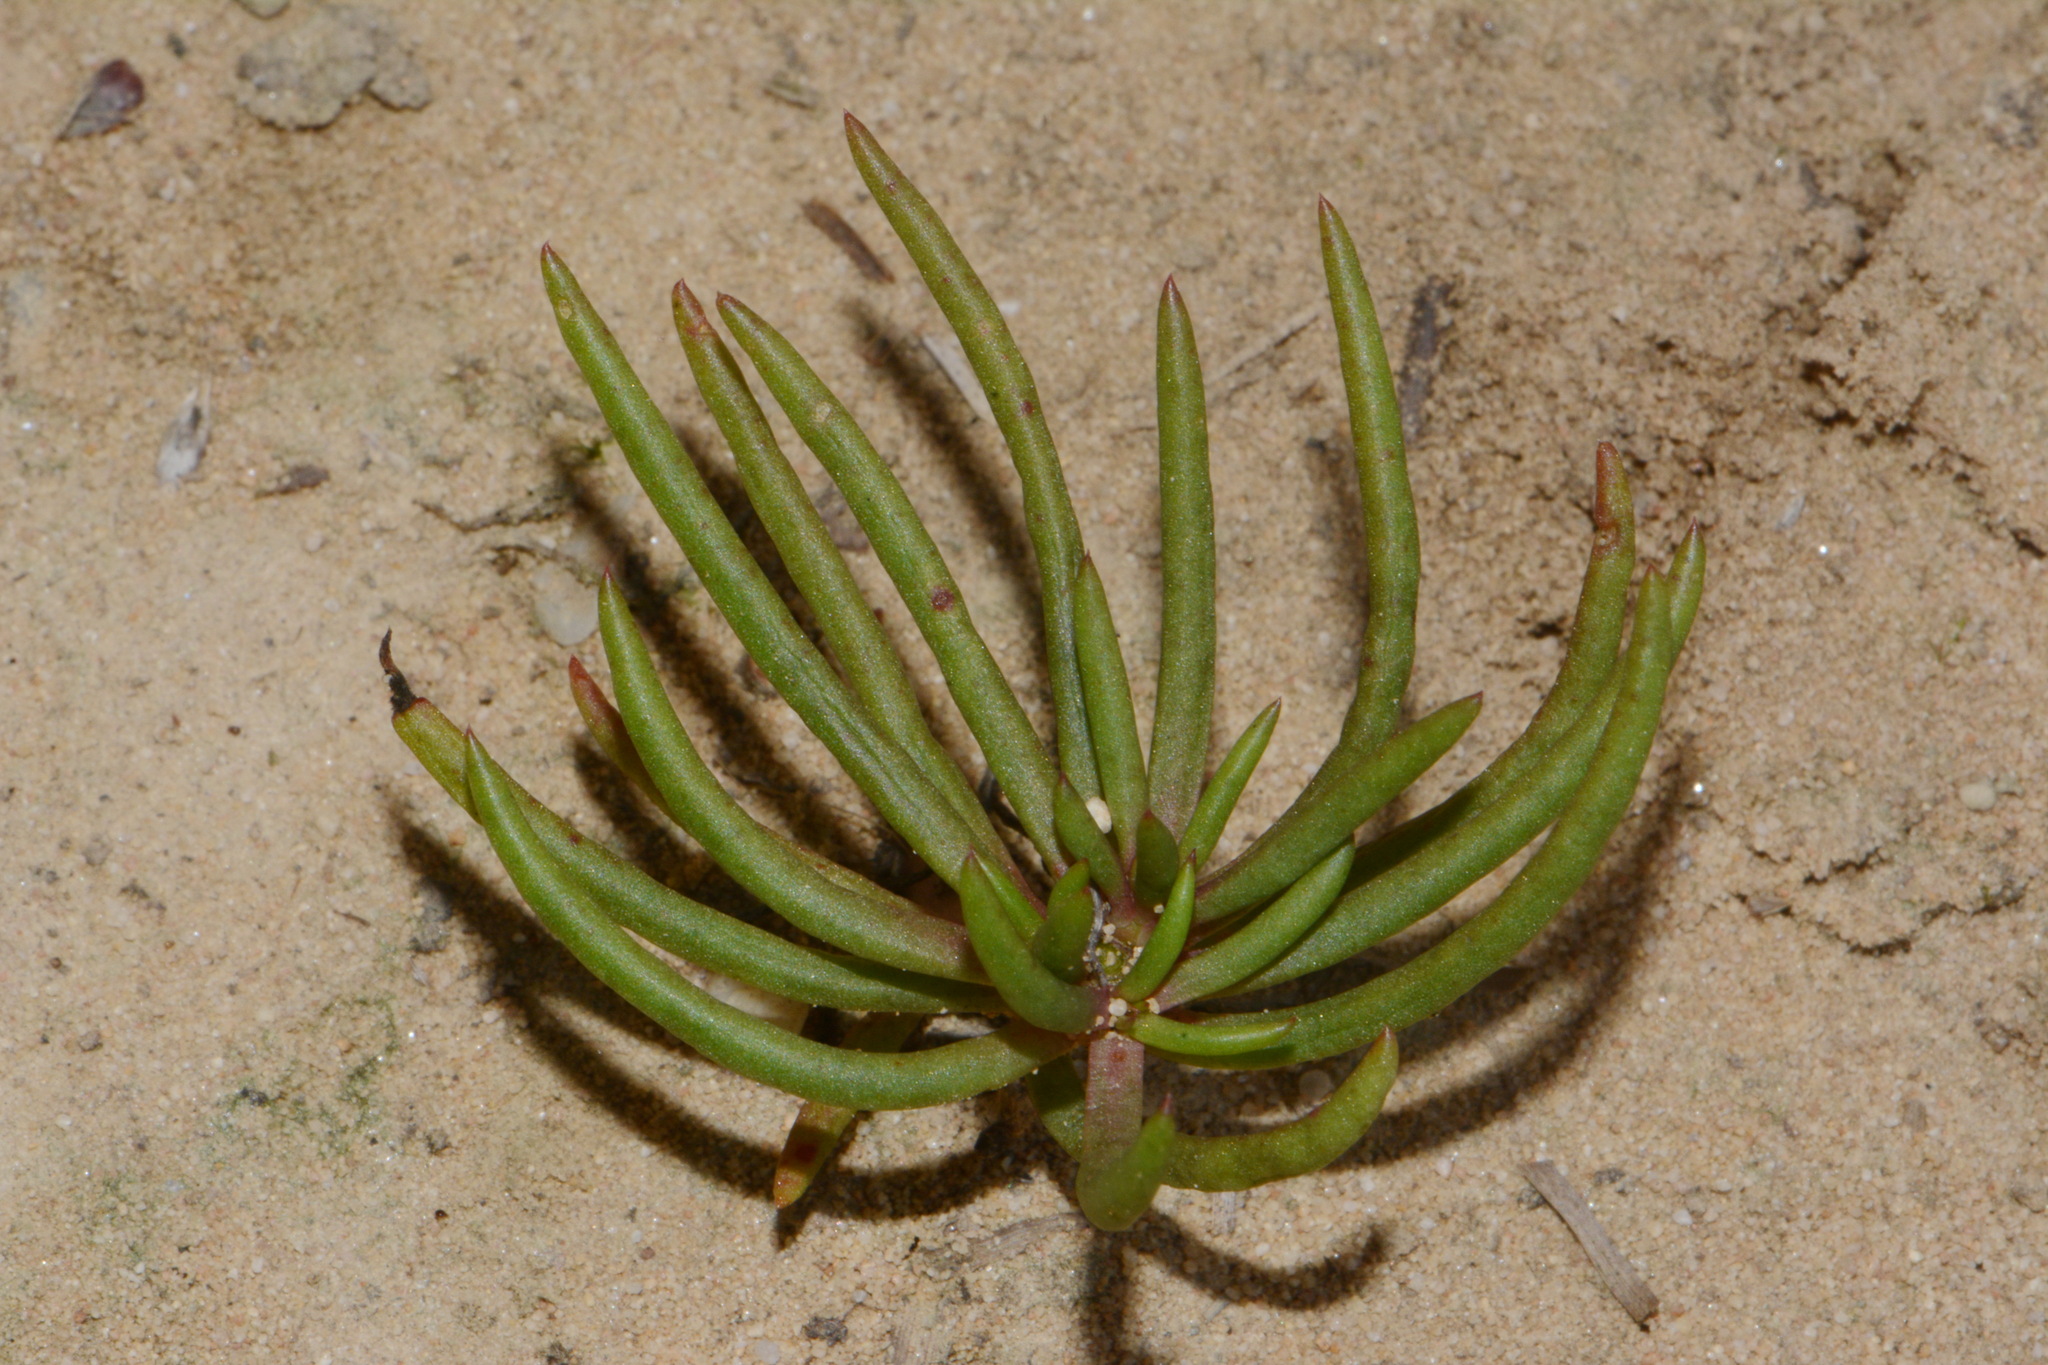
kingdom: Plantae
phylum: Tracheophyta
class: Magnoliopsida
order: Caryophyllales
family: Montiaceae
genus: Phemeranthus
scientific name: Phemeranthus mengesii
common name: Menges' fameflower
